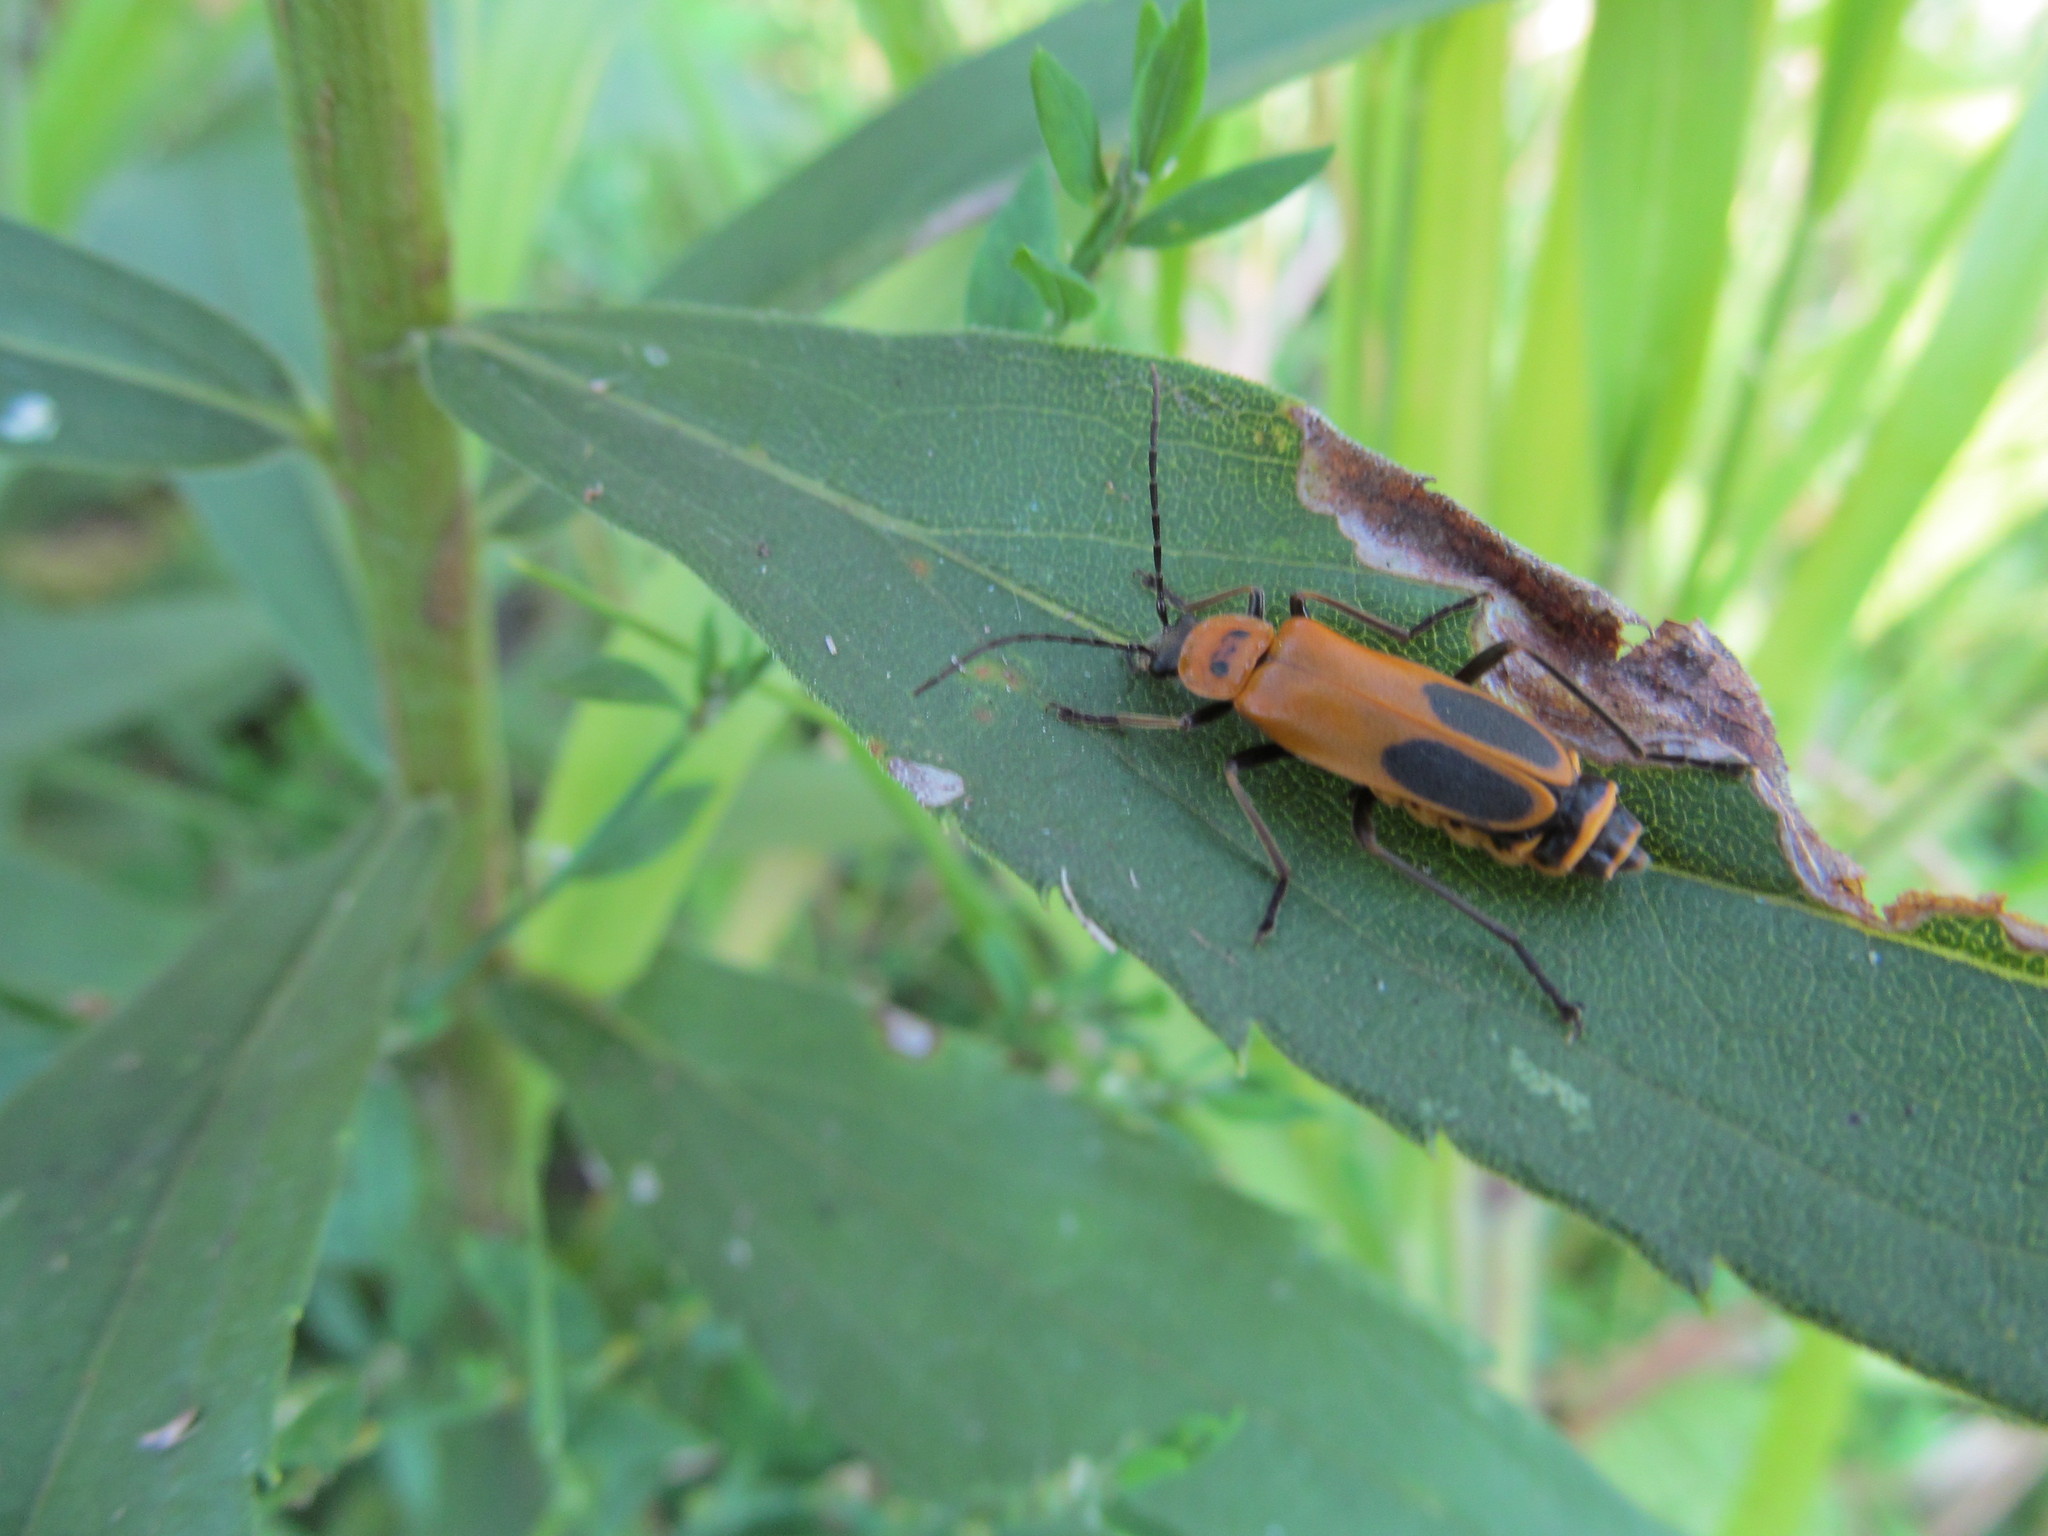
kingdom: Animalia
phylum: Arthropoda
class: Insecta
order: Coleoptera
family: Cantharidae
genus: Chauliognathus
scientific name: Chauliognathus pensylvanicus
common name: Goldenrod soldier beetle
